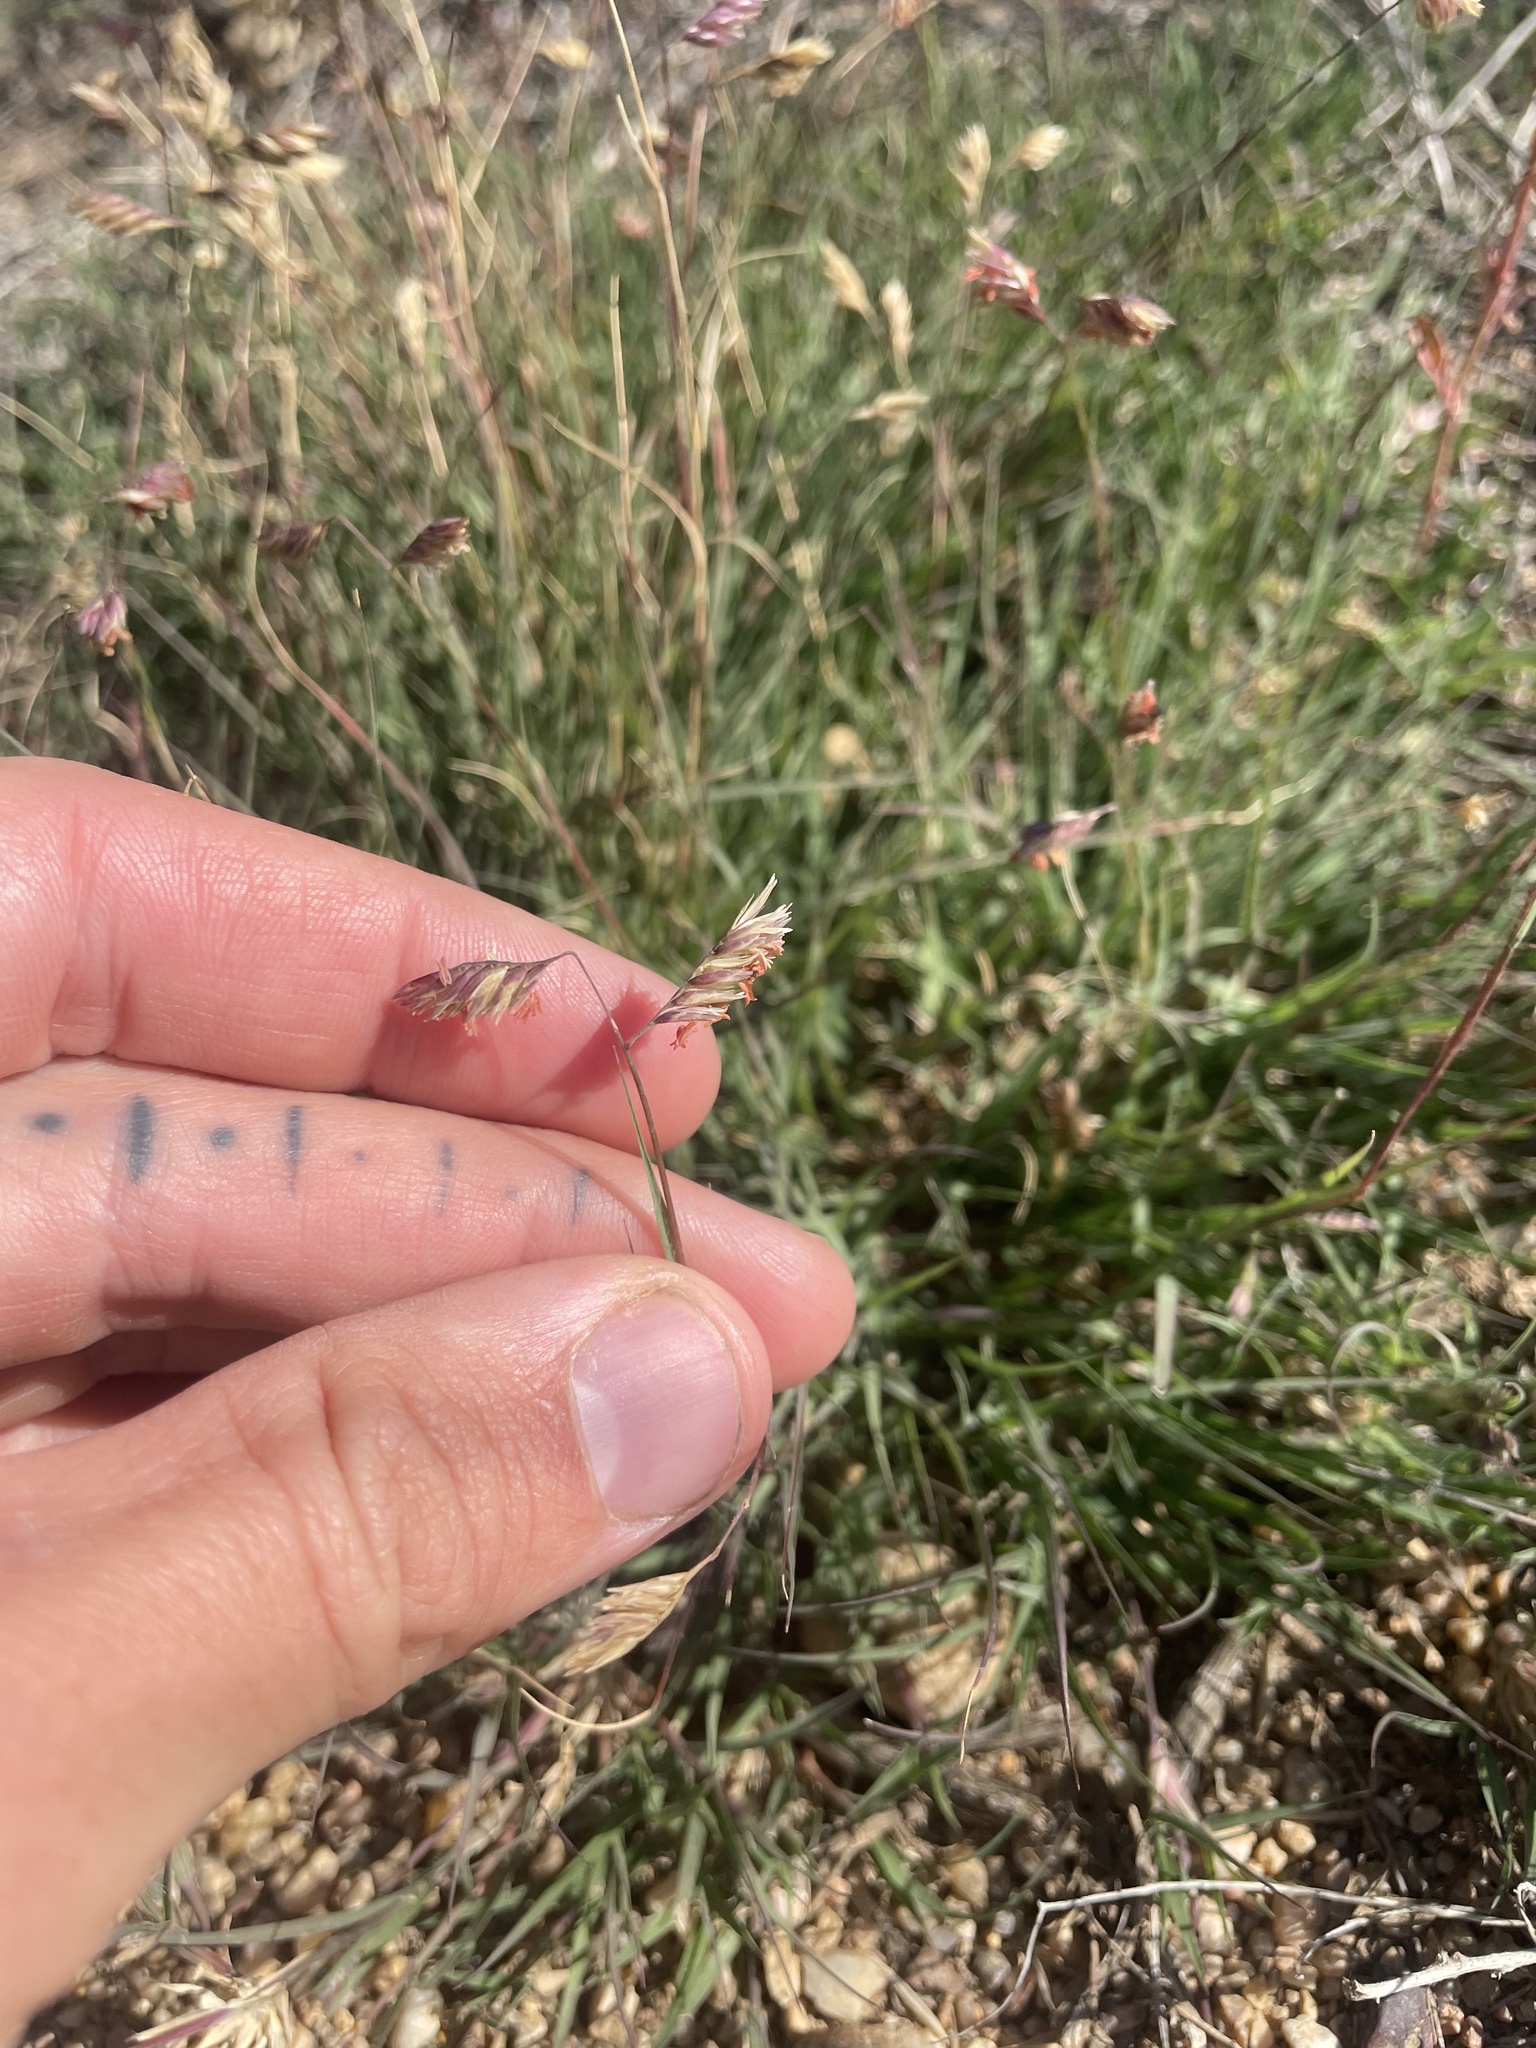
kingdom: Plantae
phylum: Tracheophyta
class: Liliopsida
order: Poales
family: Poaceae
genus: Bouteloua
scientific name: Bouteloua dactyloides
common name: Buffalo grass
